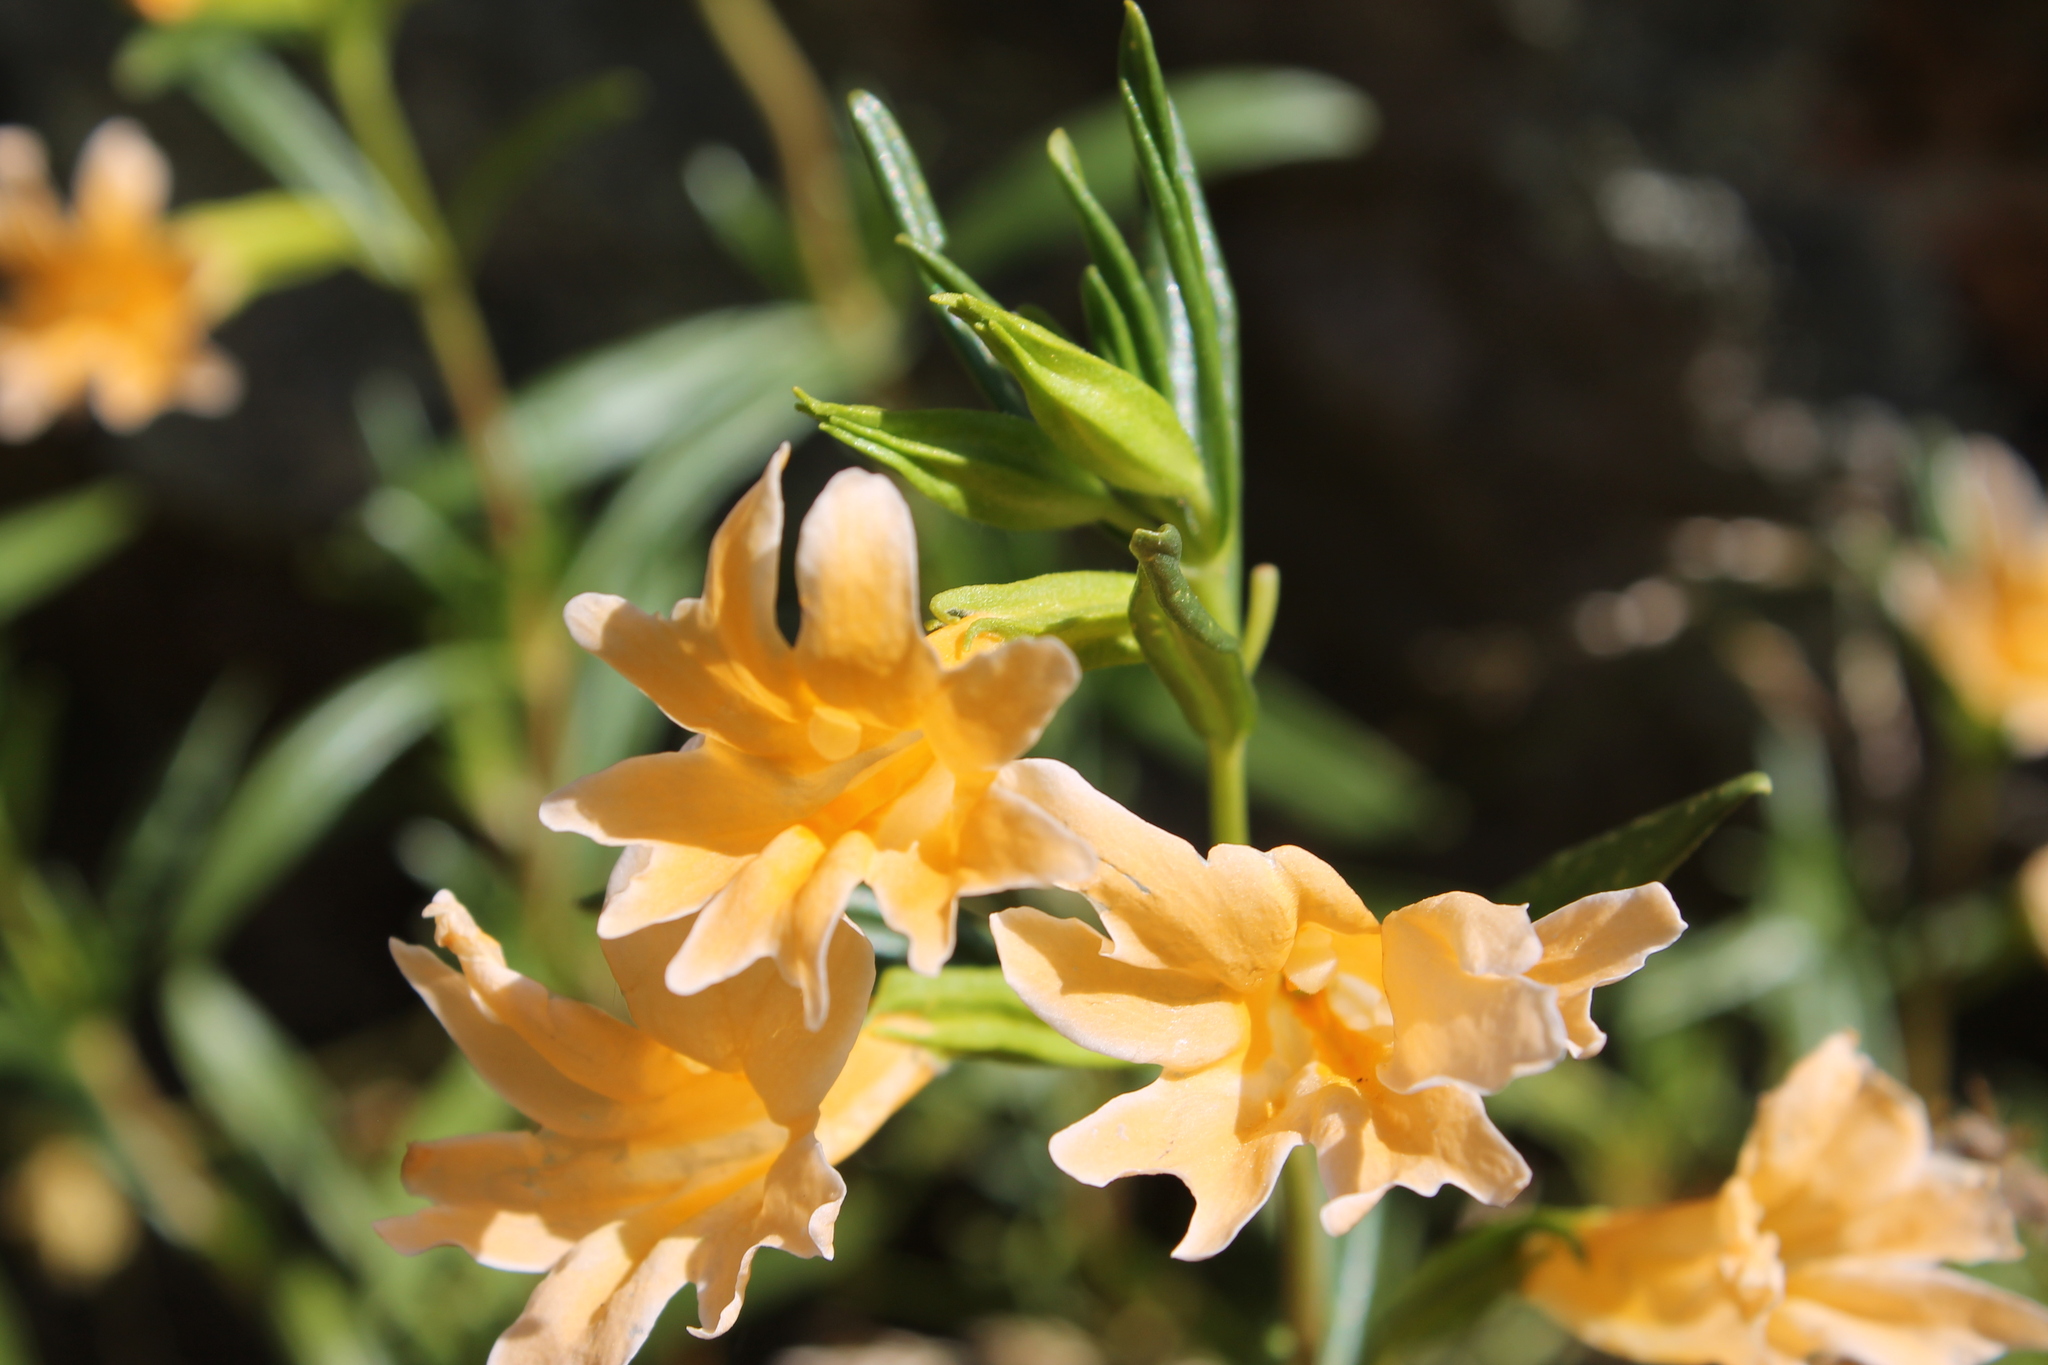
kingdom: Plantae
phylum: Tracheophyta
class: Magnoliopsida
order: Lamiales
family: Phrymaceae
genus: Diplacus
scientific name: Diplacus linearis
